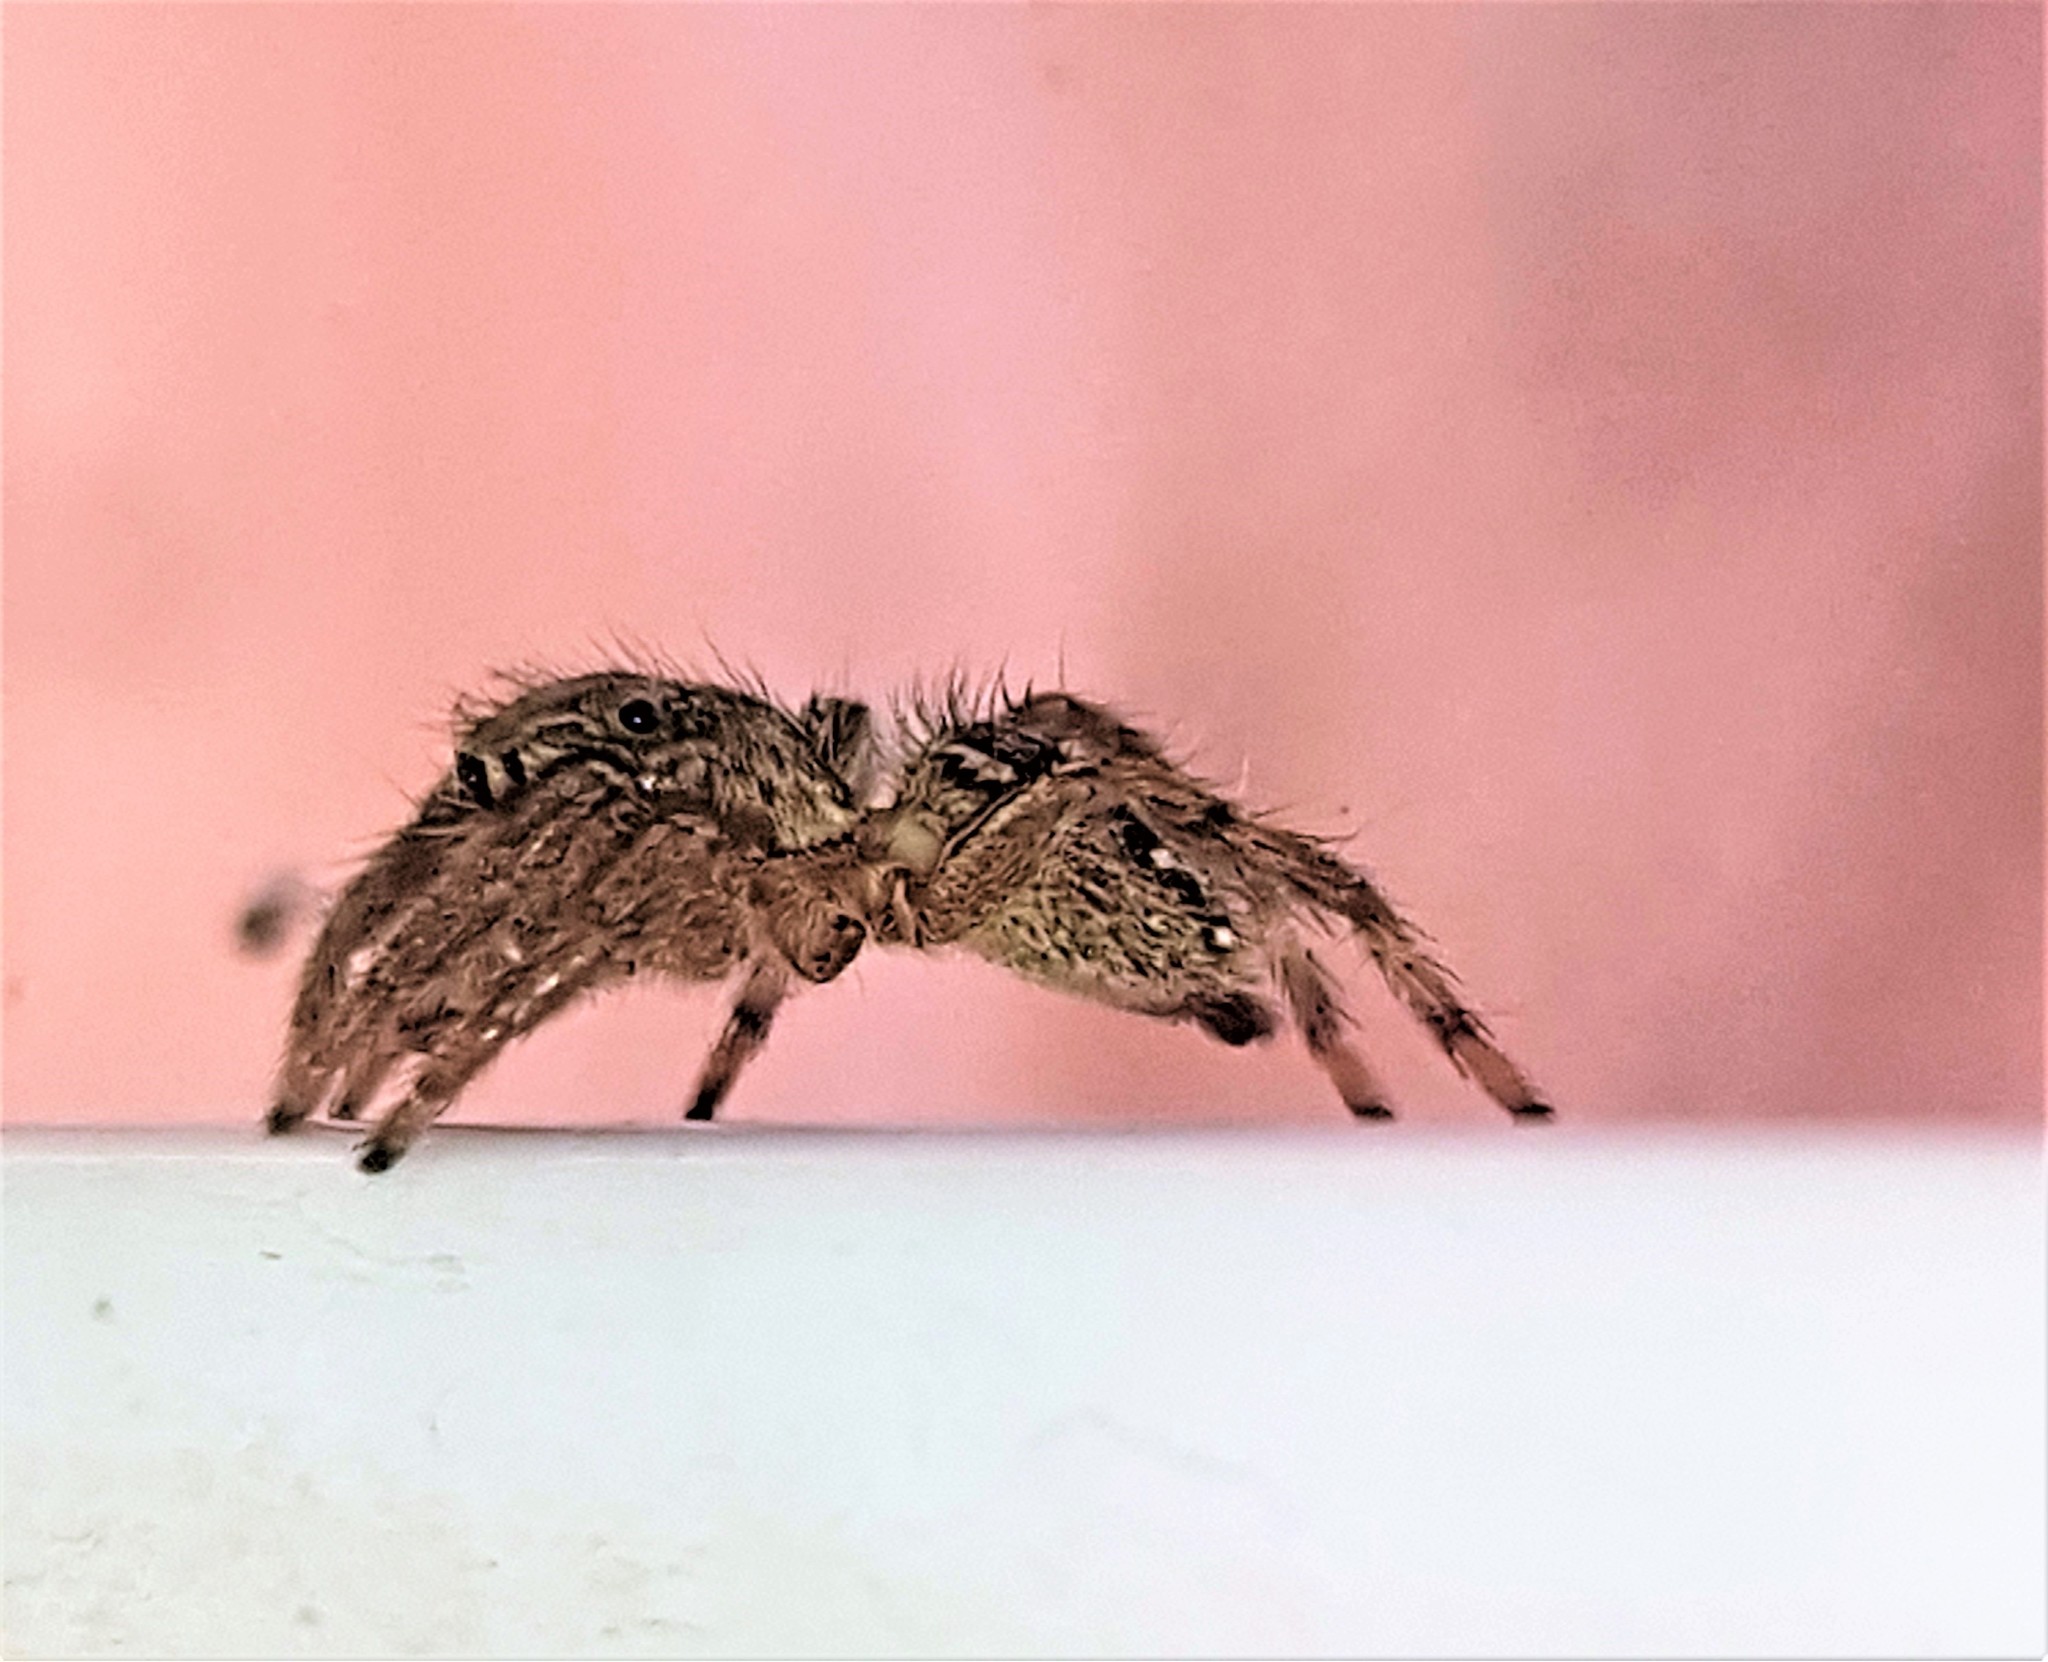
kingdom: Animalia
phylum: Arthropoda
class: Arachnida
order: Araneae
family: Salticidae
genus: Plexippus
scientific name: Plexippus paykulli
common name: Pantropical jumper
